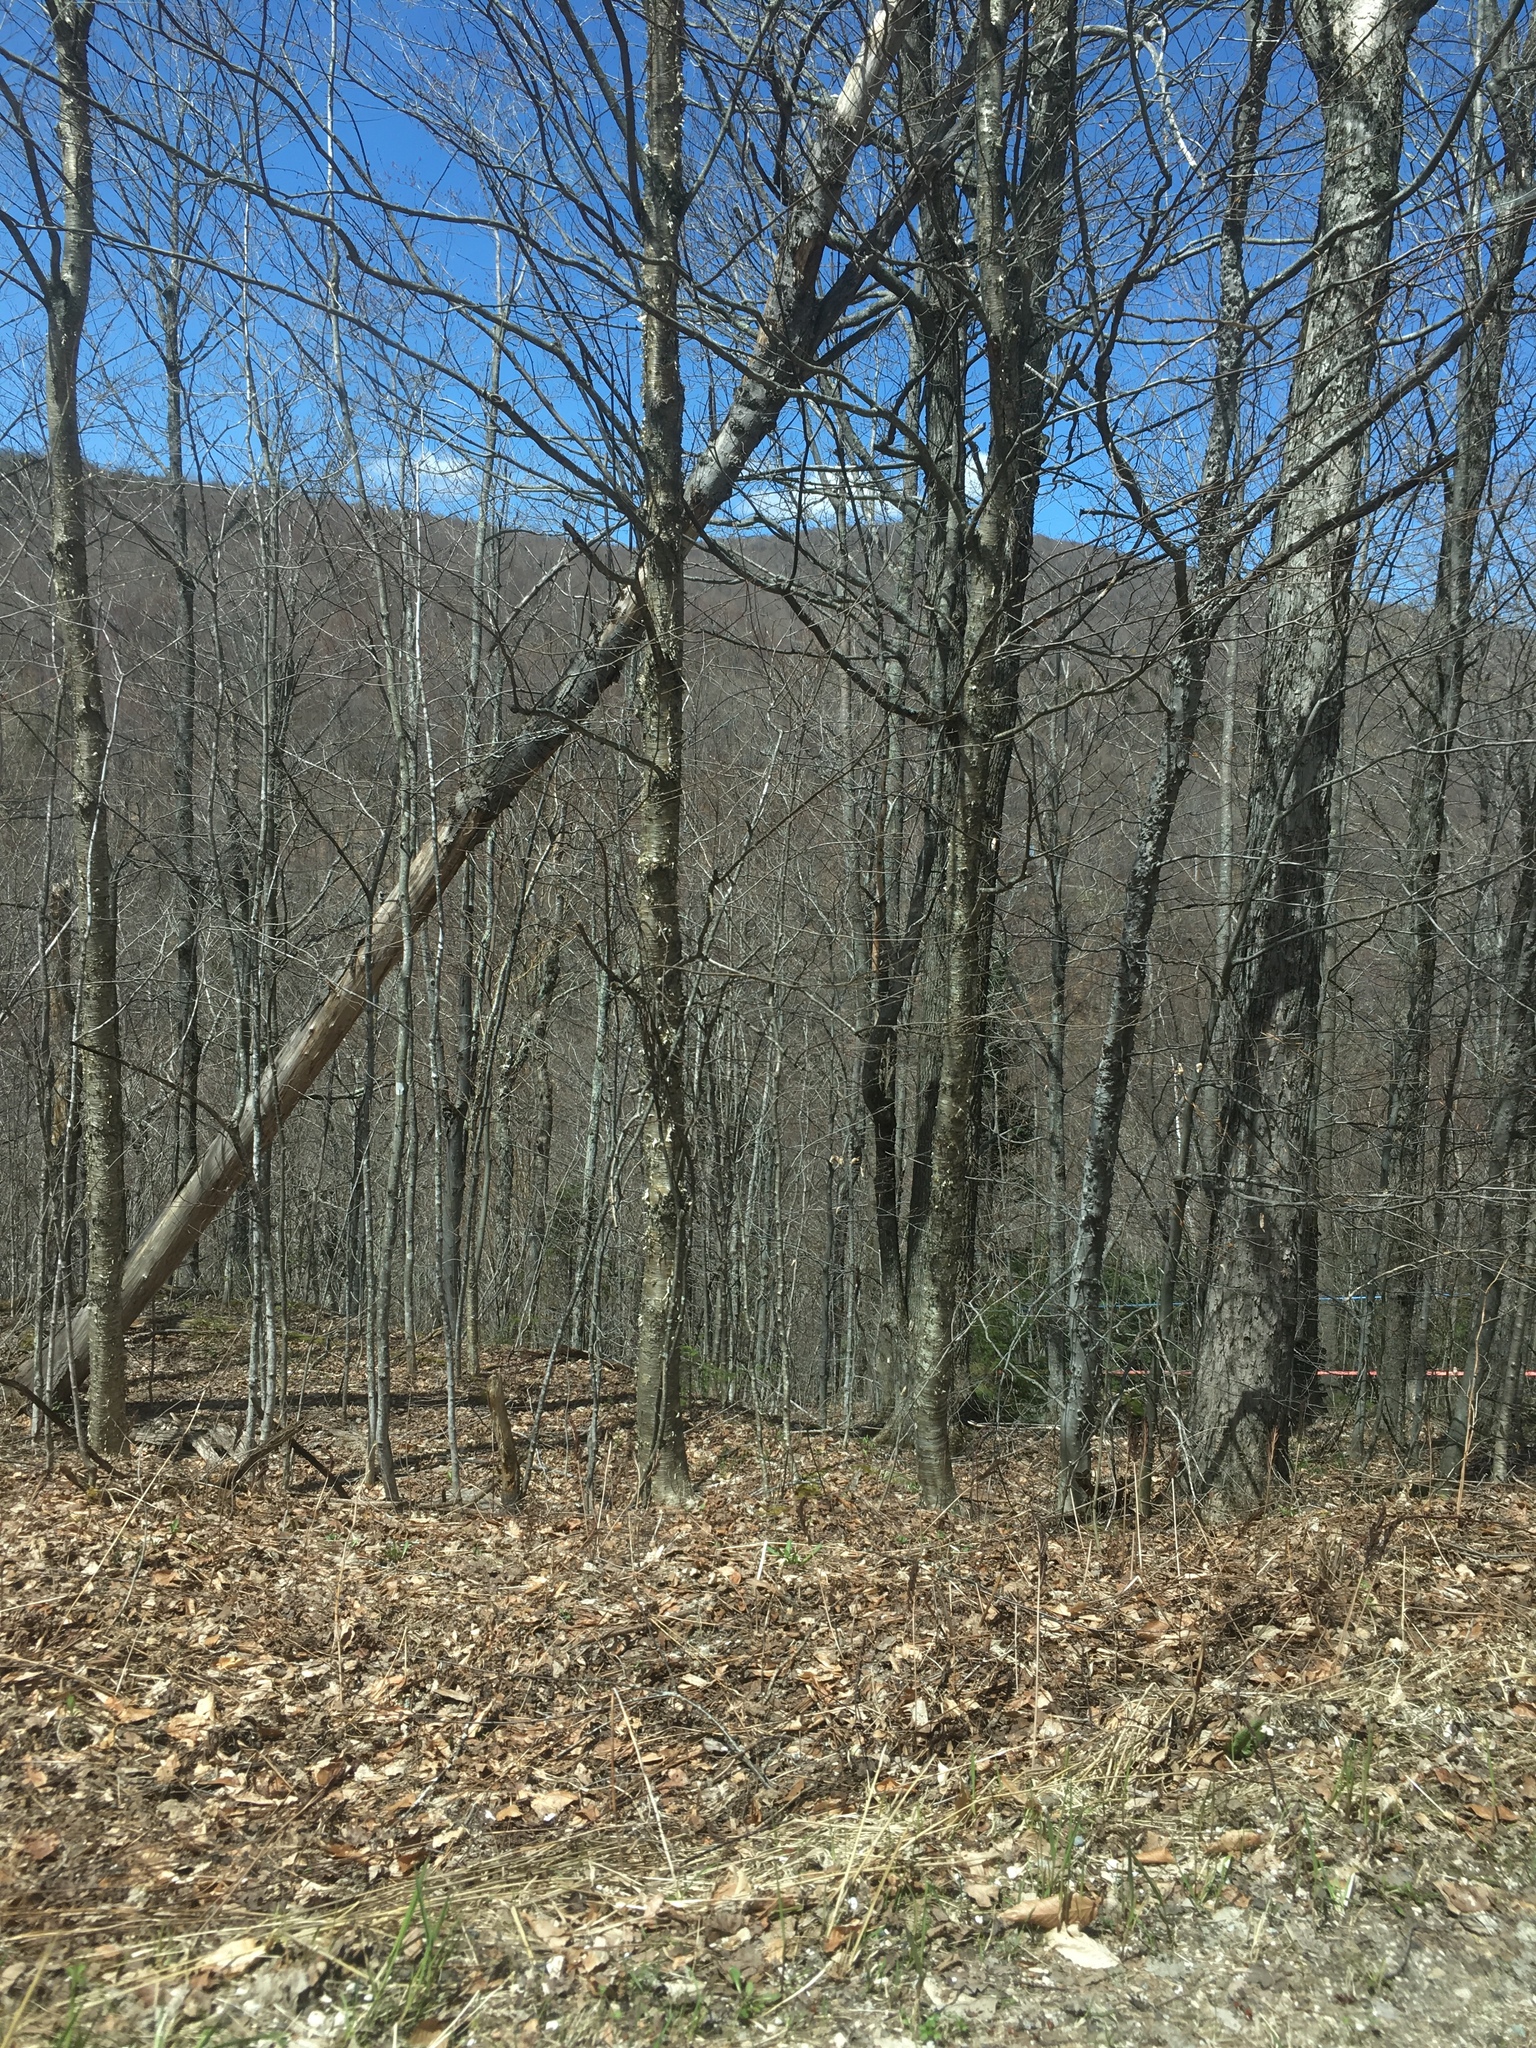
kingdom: Plantae
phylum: Tracheophyta
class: Magnoliopsida
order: Fagales
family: Betulaceae
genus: Betula
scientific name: Betula alleghaniensis
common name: Yellow birch
